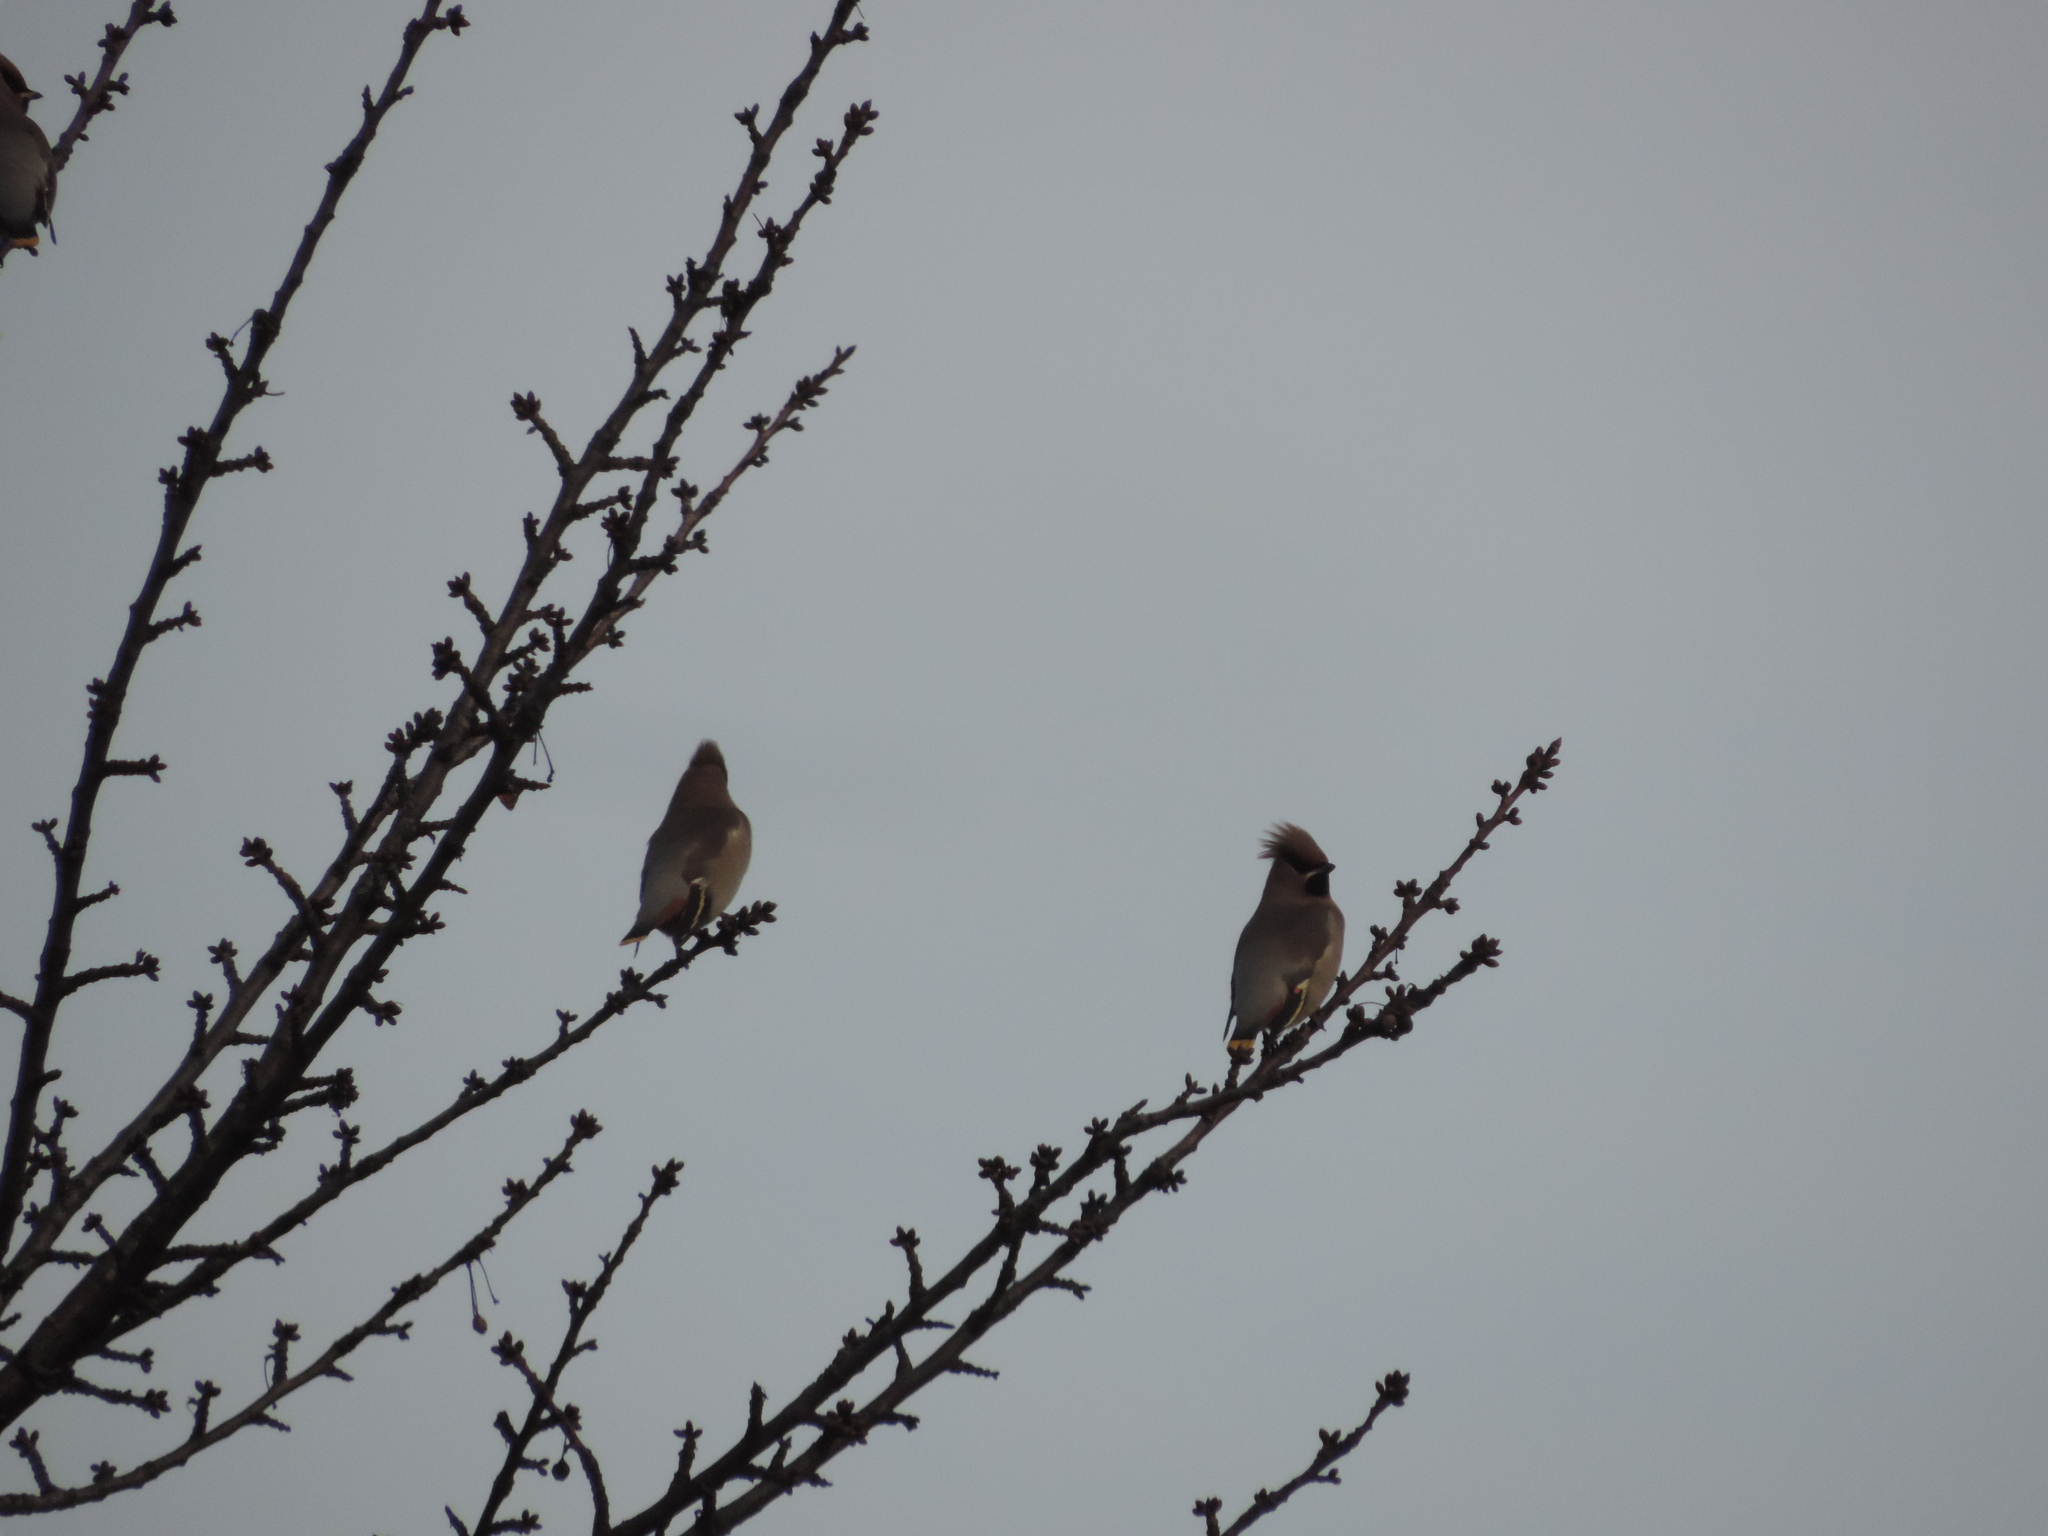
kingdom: Animalia
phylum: Chordata
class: Aves
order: Passeriformes
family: Bombycillidae
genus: Bombycilla
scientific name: Bombycilla garrulus
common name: Bohemian waxwing
